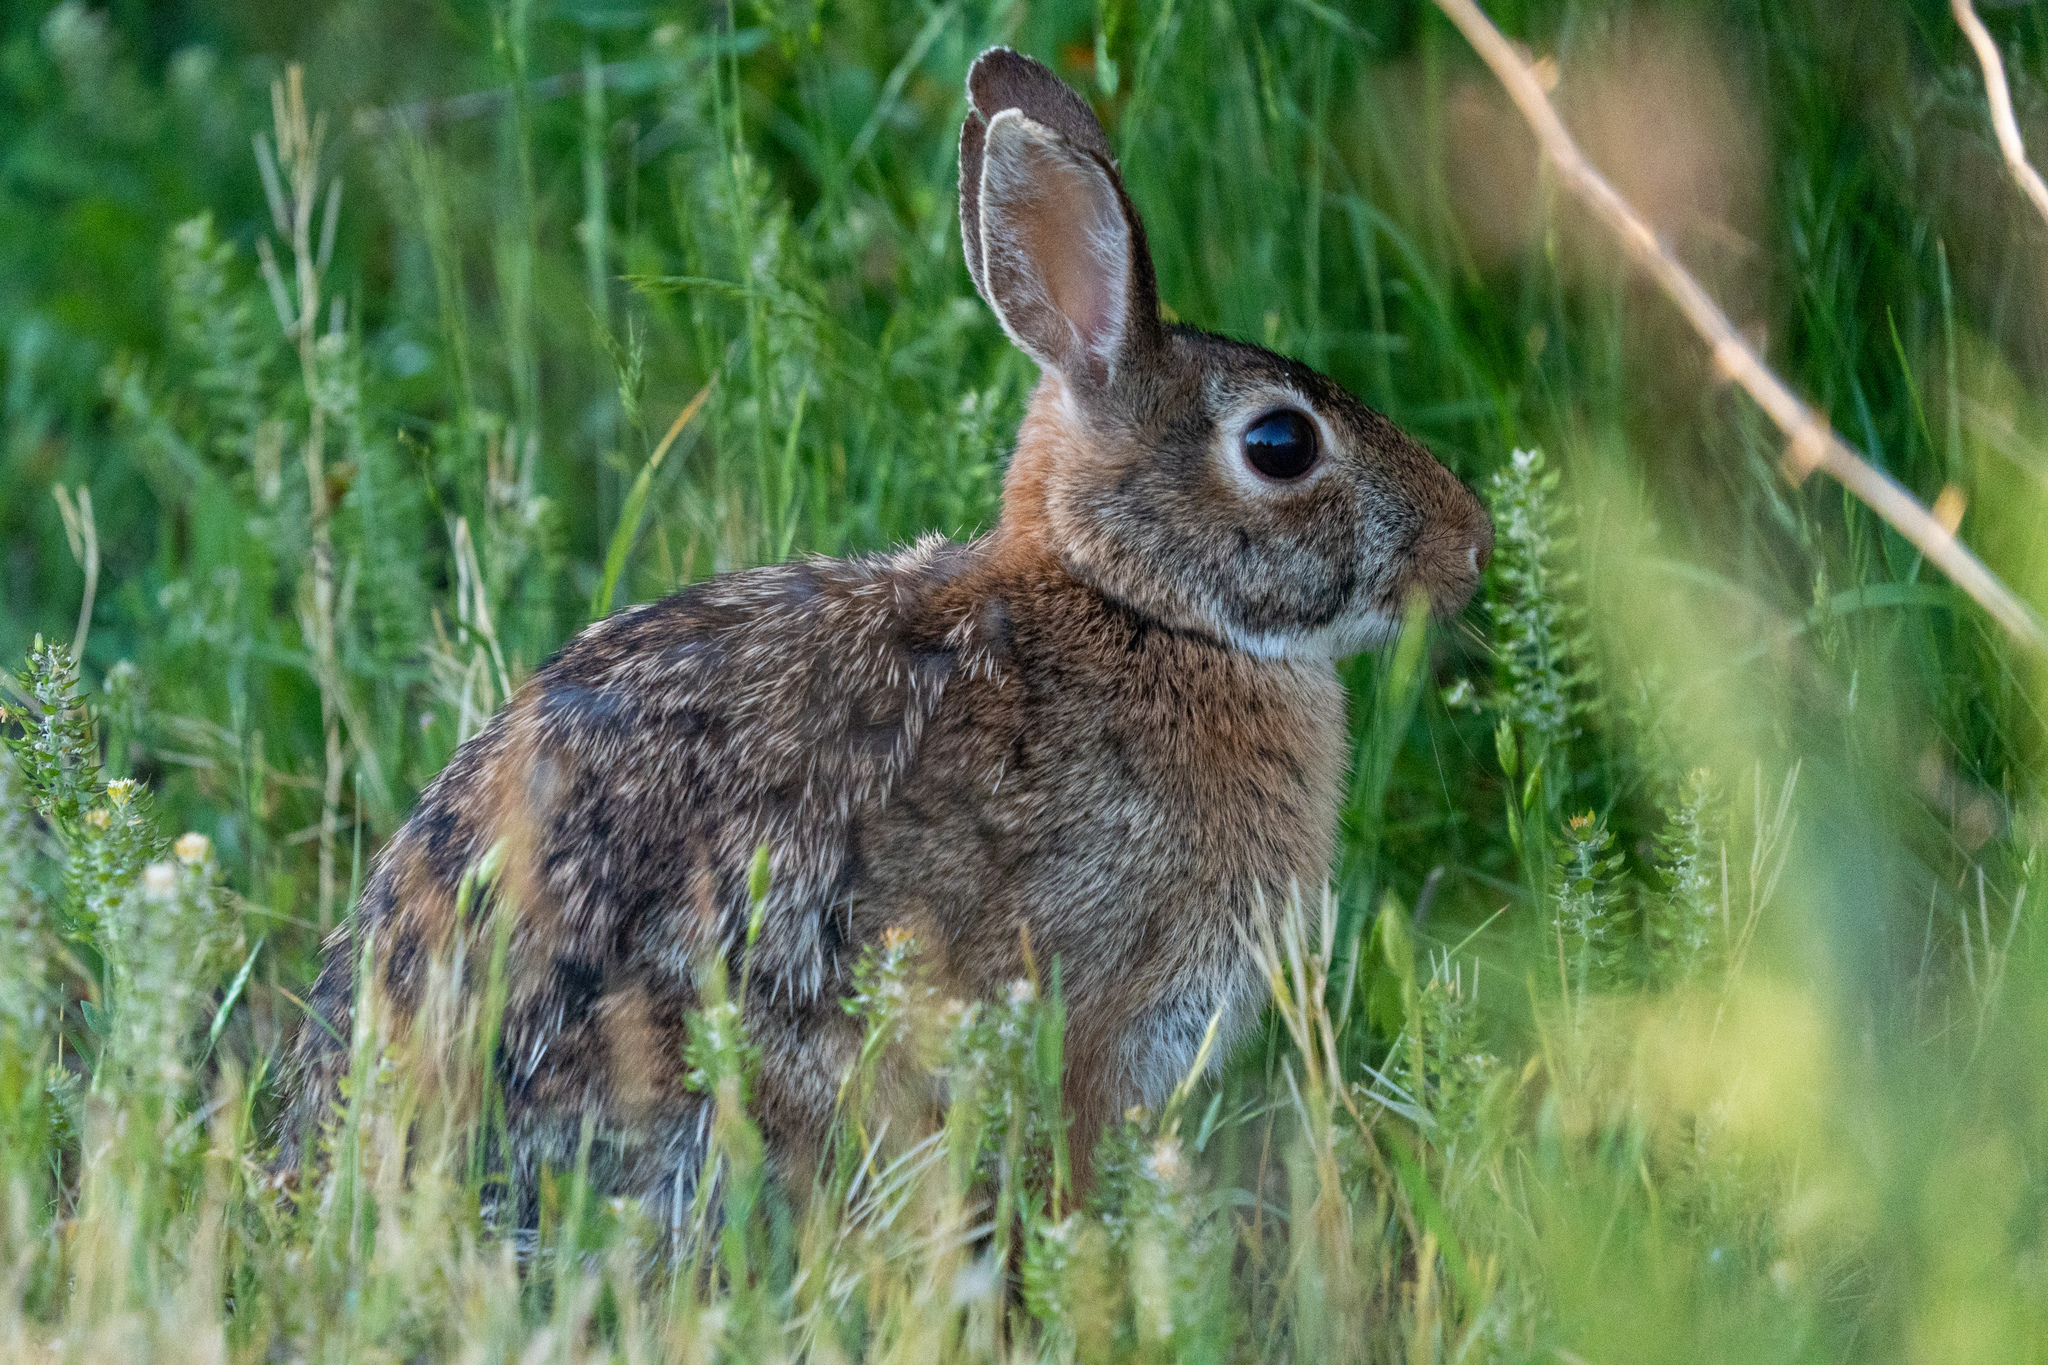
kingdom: Animalia
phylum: Chordata
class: Mammalia
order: Lagomorpha
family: Leporidae
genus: Sylvilagus
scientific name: Sylvilagus floridanus
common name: Eastern cottontail
